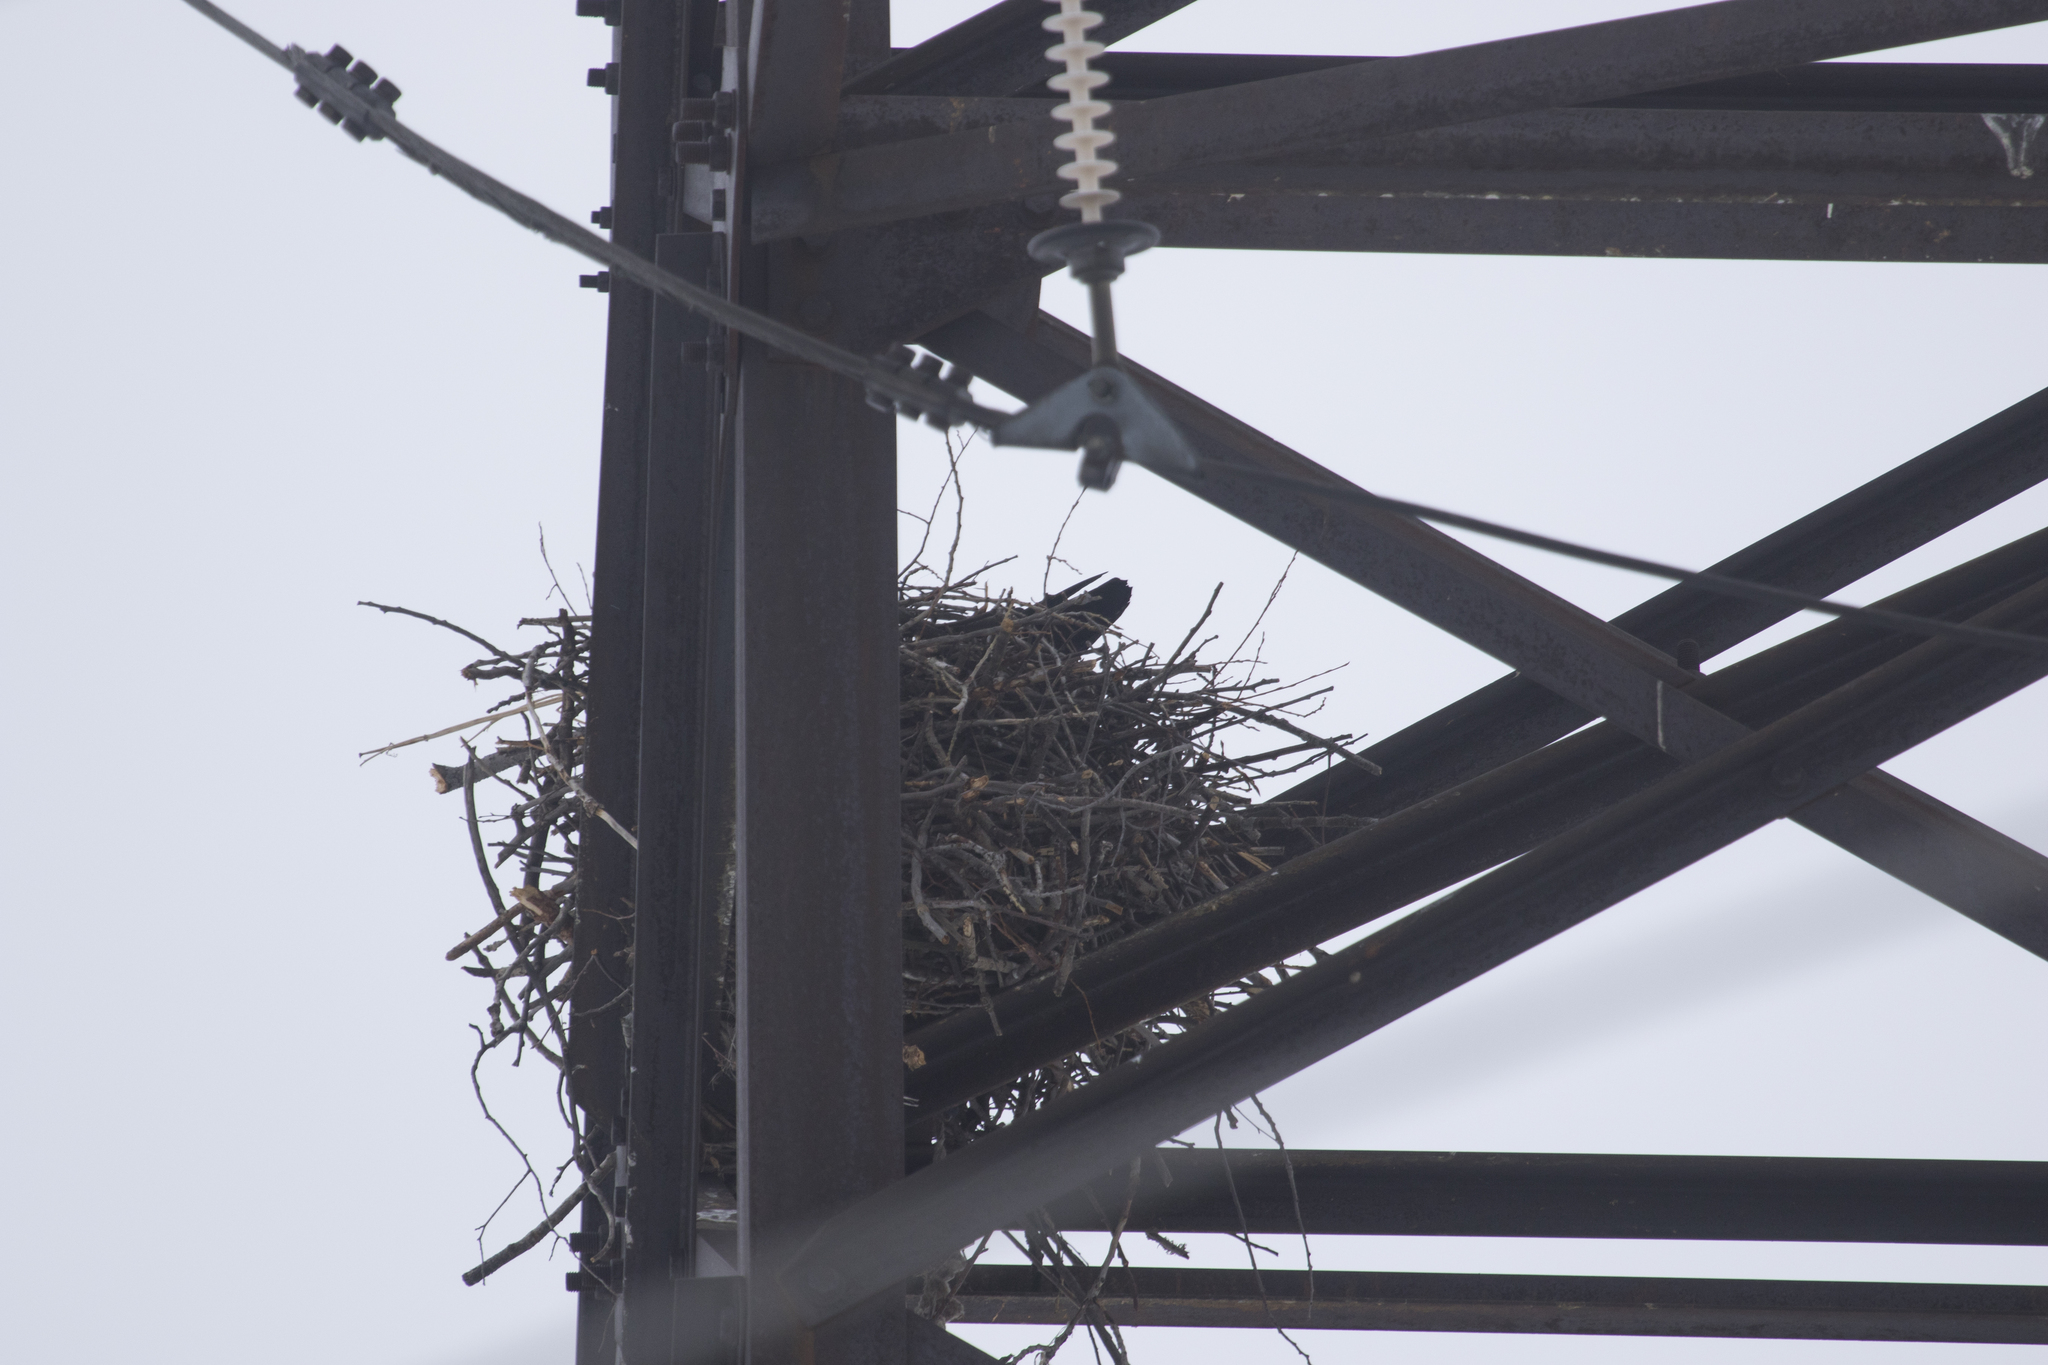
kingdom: Animalia
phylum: Chordata
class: Aves
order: Passeriformes
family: Corvidae
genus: Corvus
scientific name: Corvus corax
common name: Common raven
